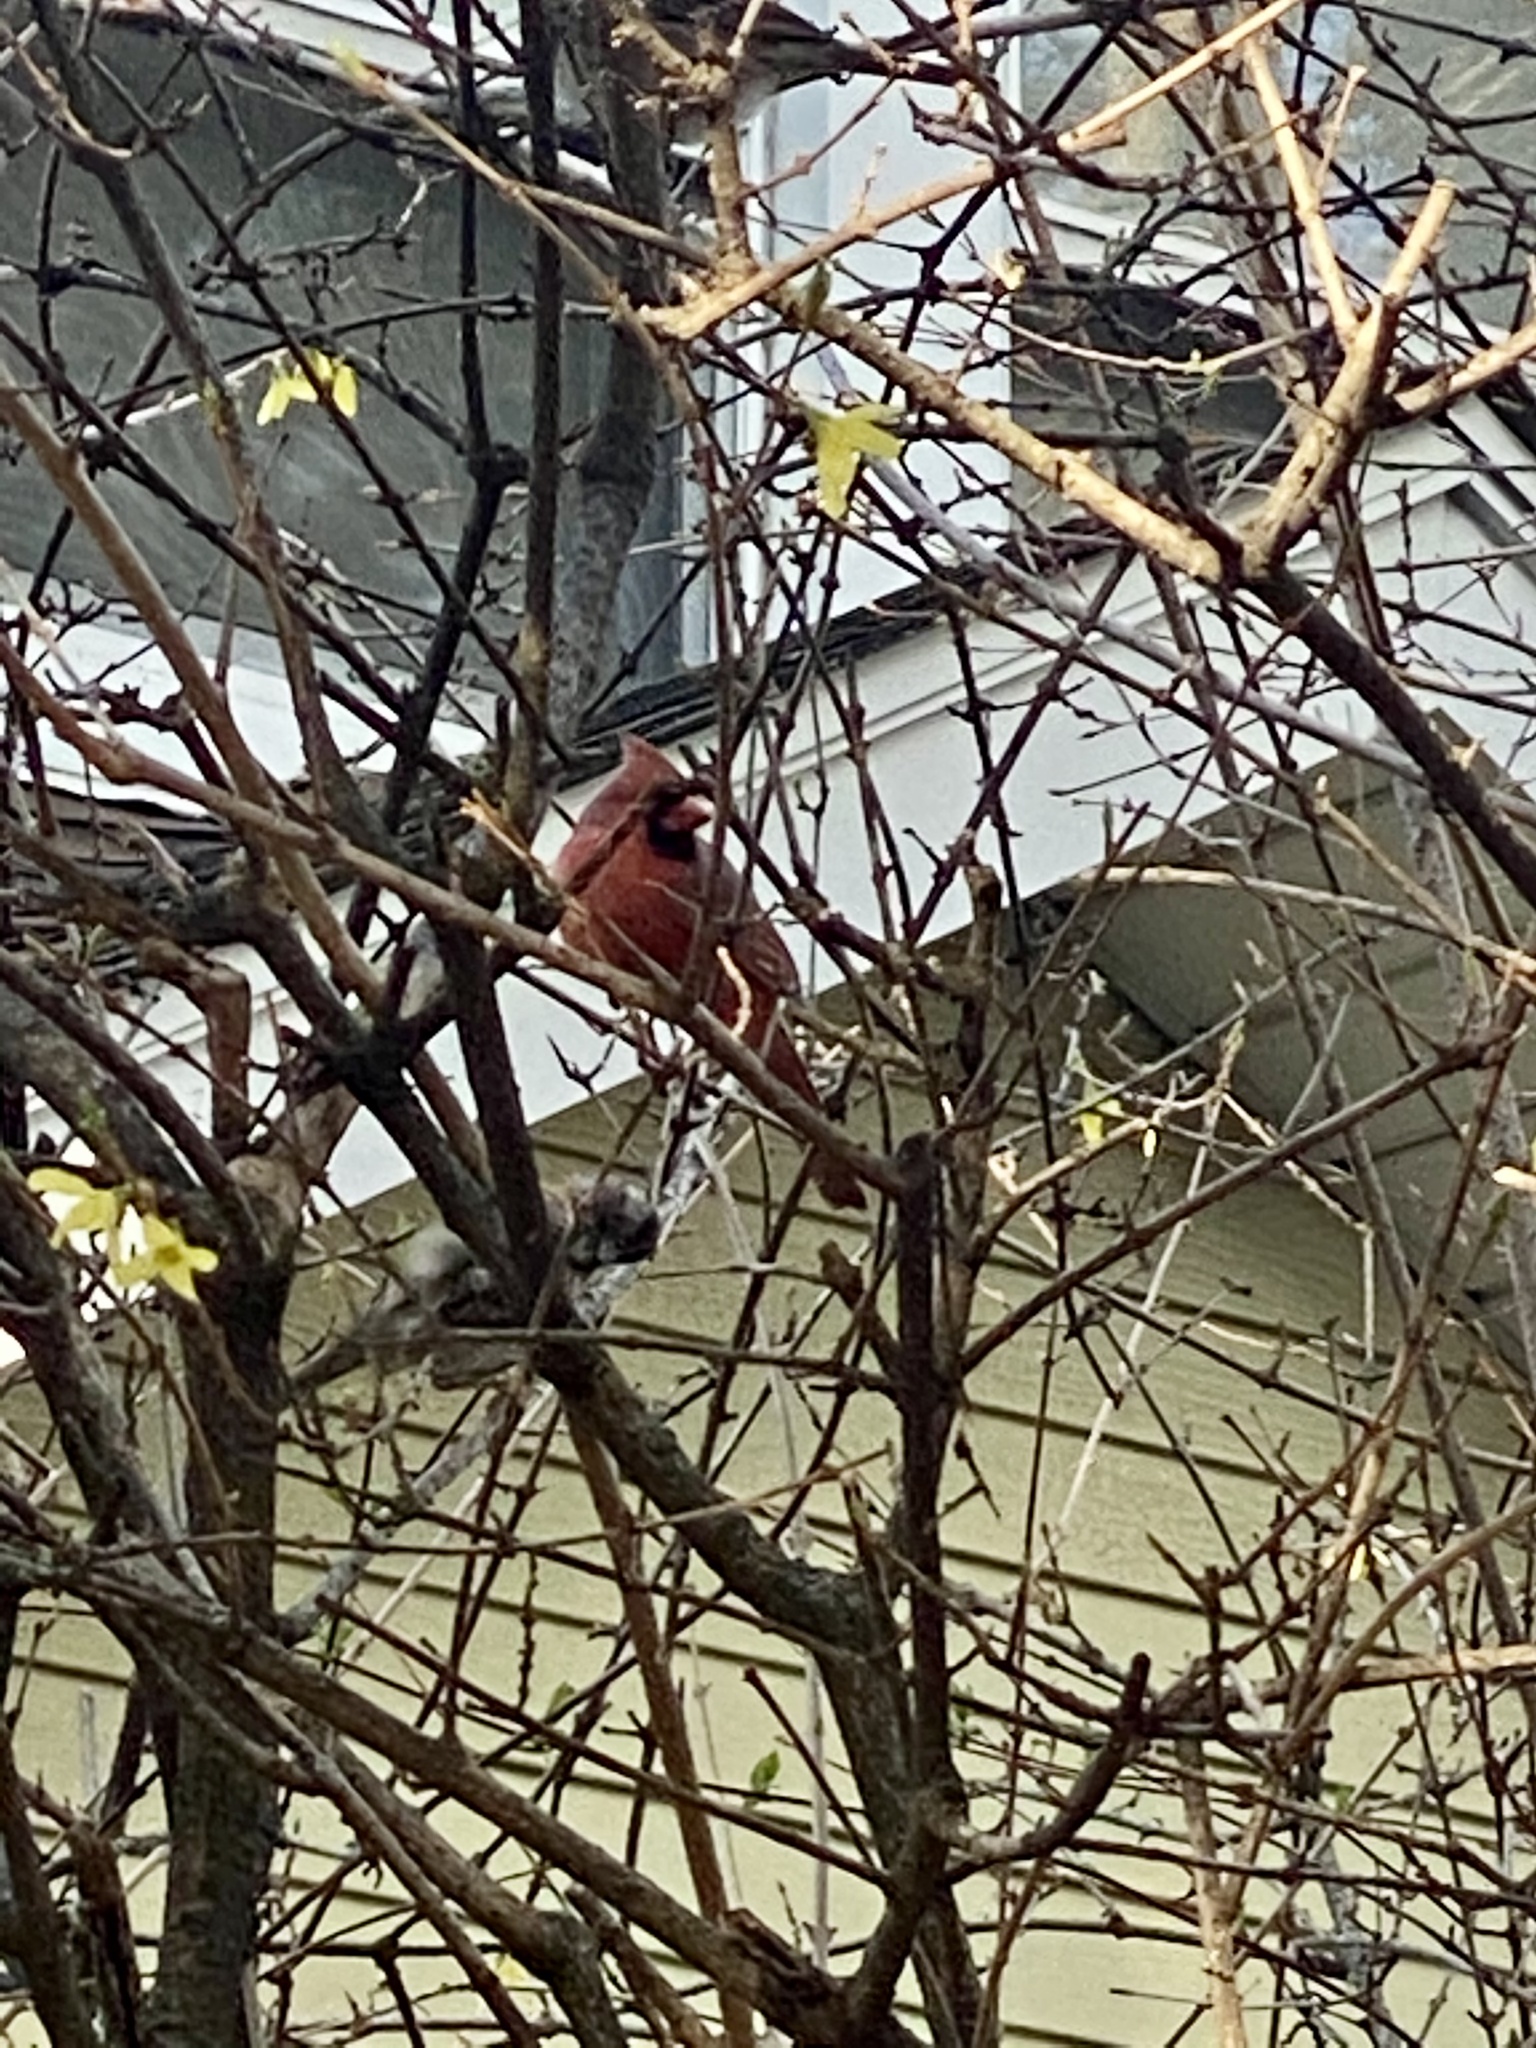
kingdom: Animalia
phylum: Chordata
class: Aves
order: Passeriformes
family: Cardinalidae
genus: Cardinalis
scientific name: Cardinalis cardinalis
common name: Northern cardinal
